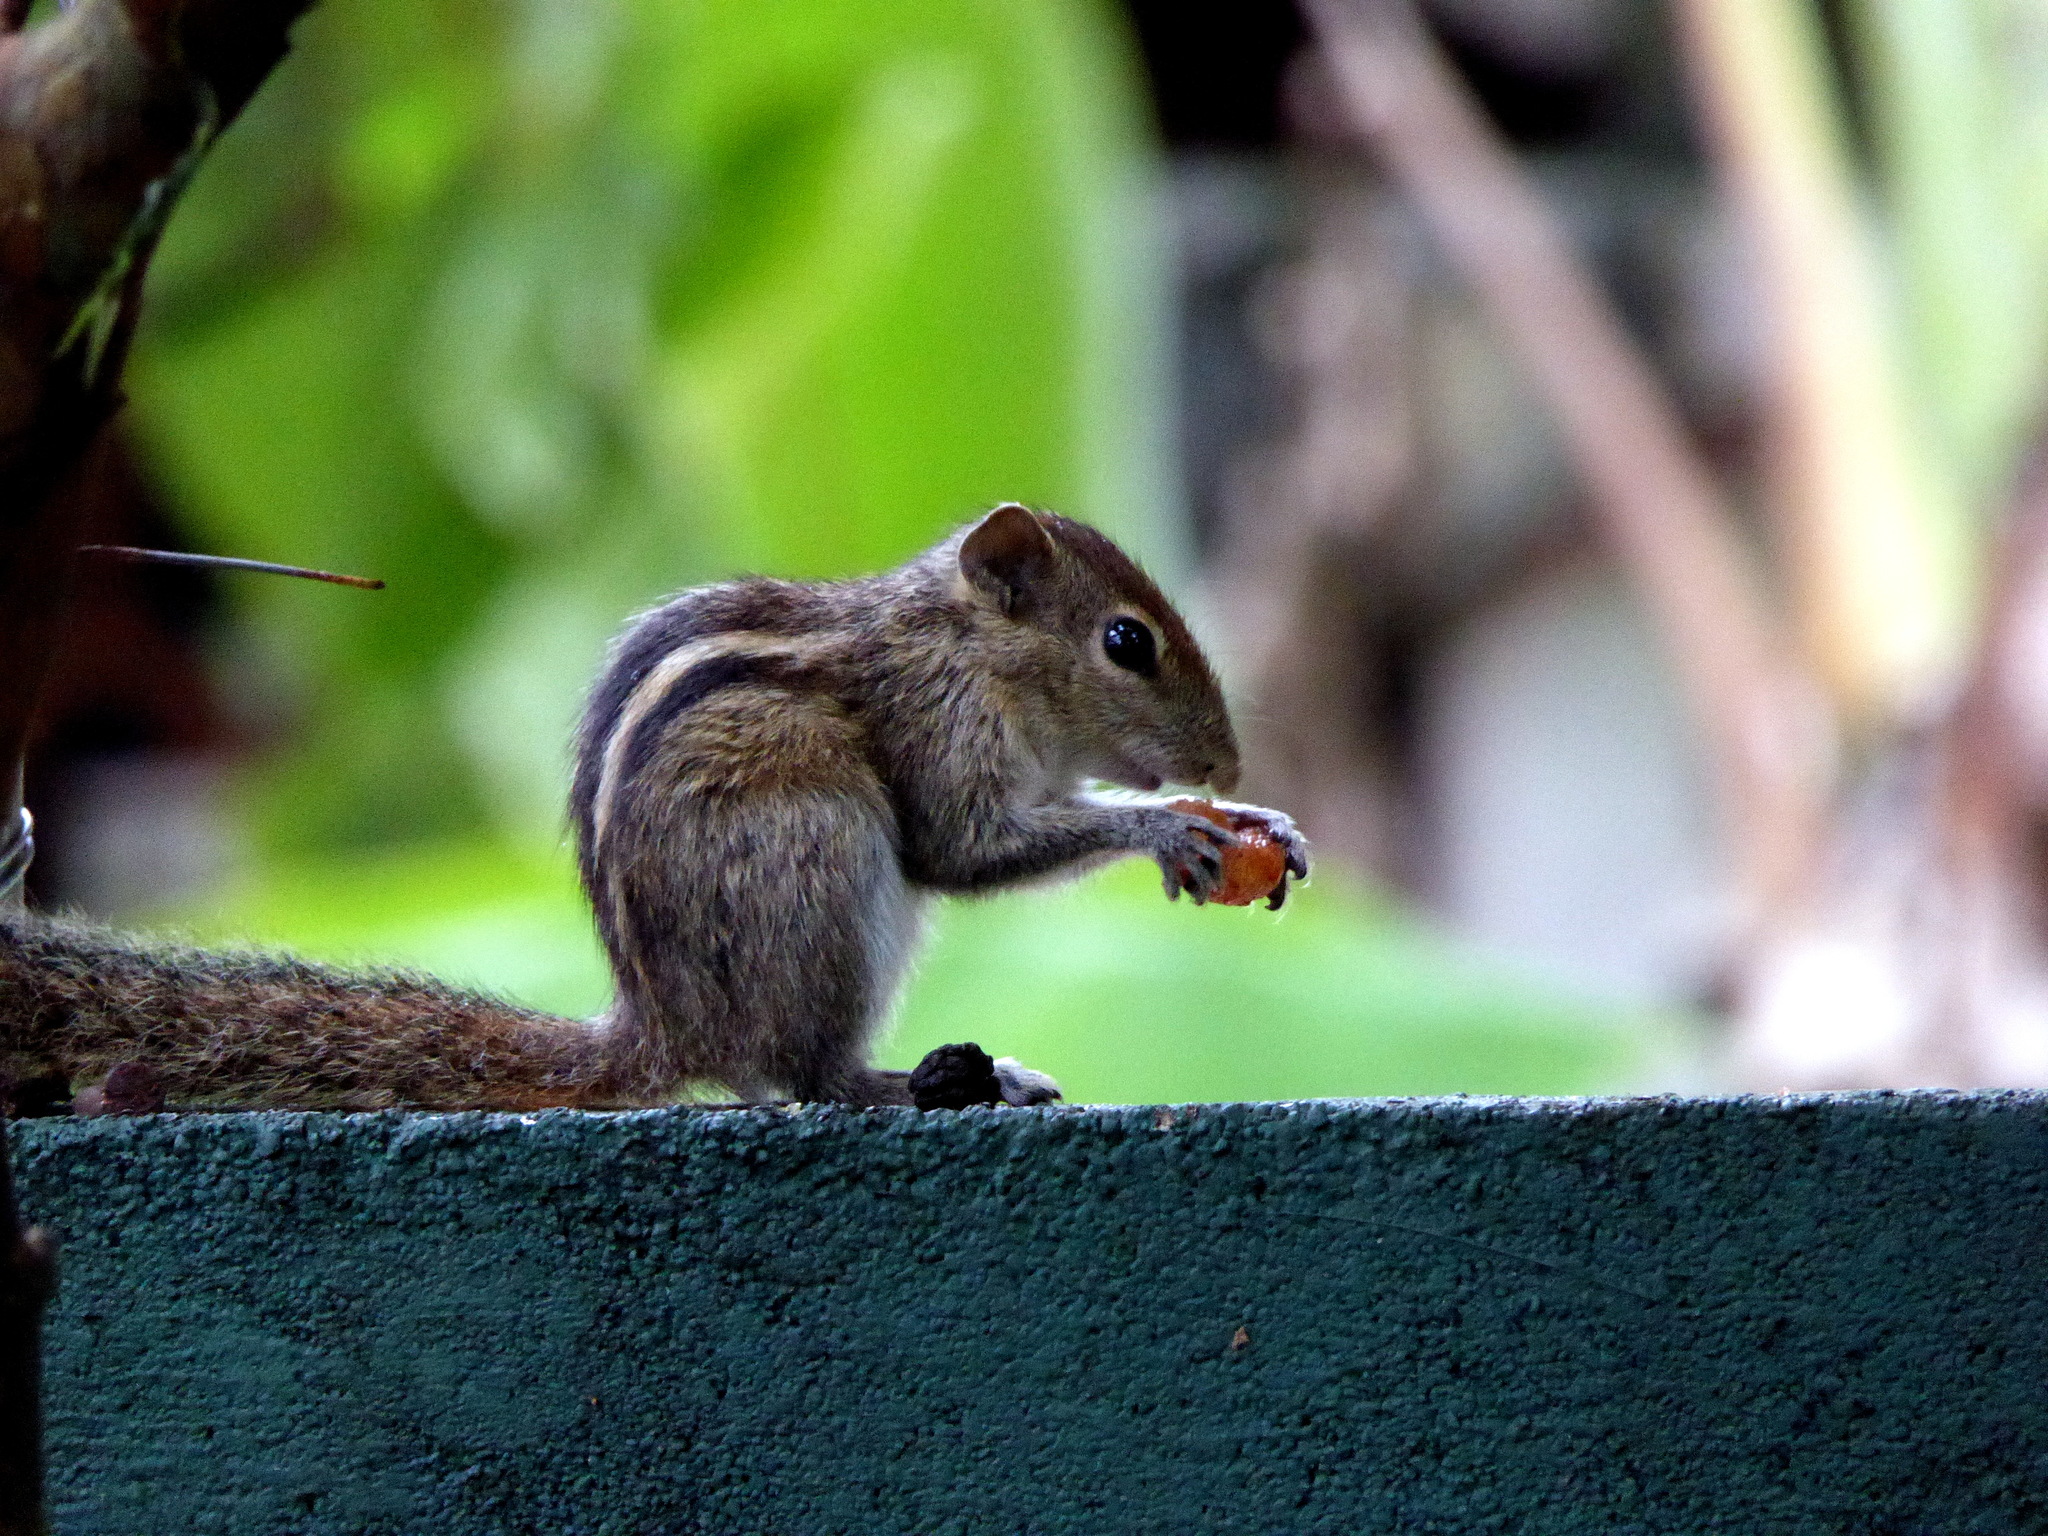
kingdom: Animalia
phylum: Chordata
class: Mammalia
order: Rodentia
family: Sciuridae
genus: Funambulus
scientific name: Funambulus palmarum
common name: Indian palm squirrel
